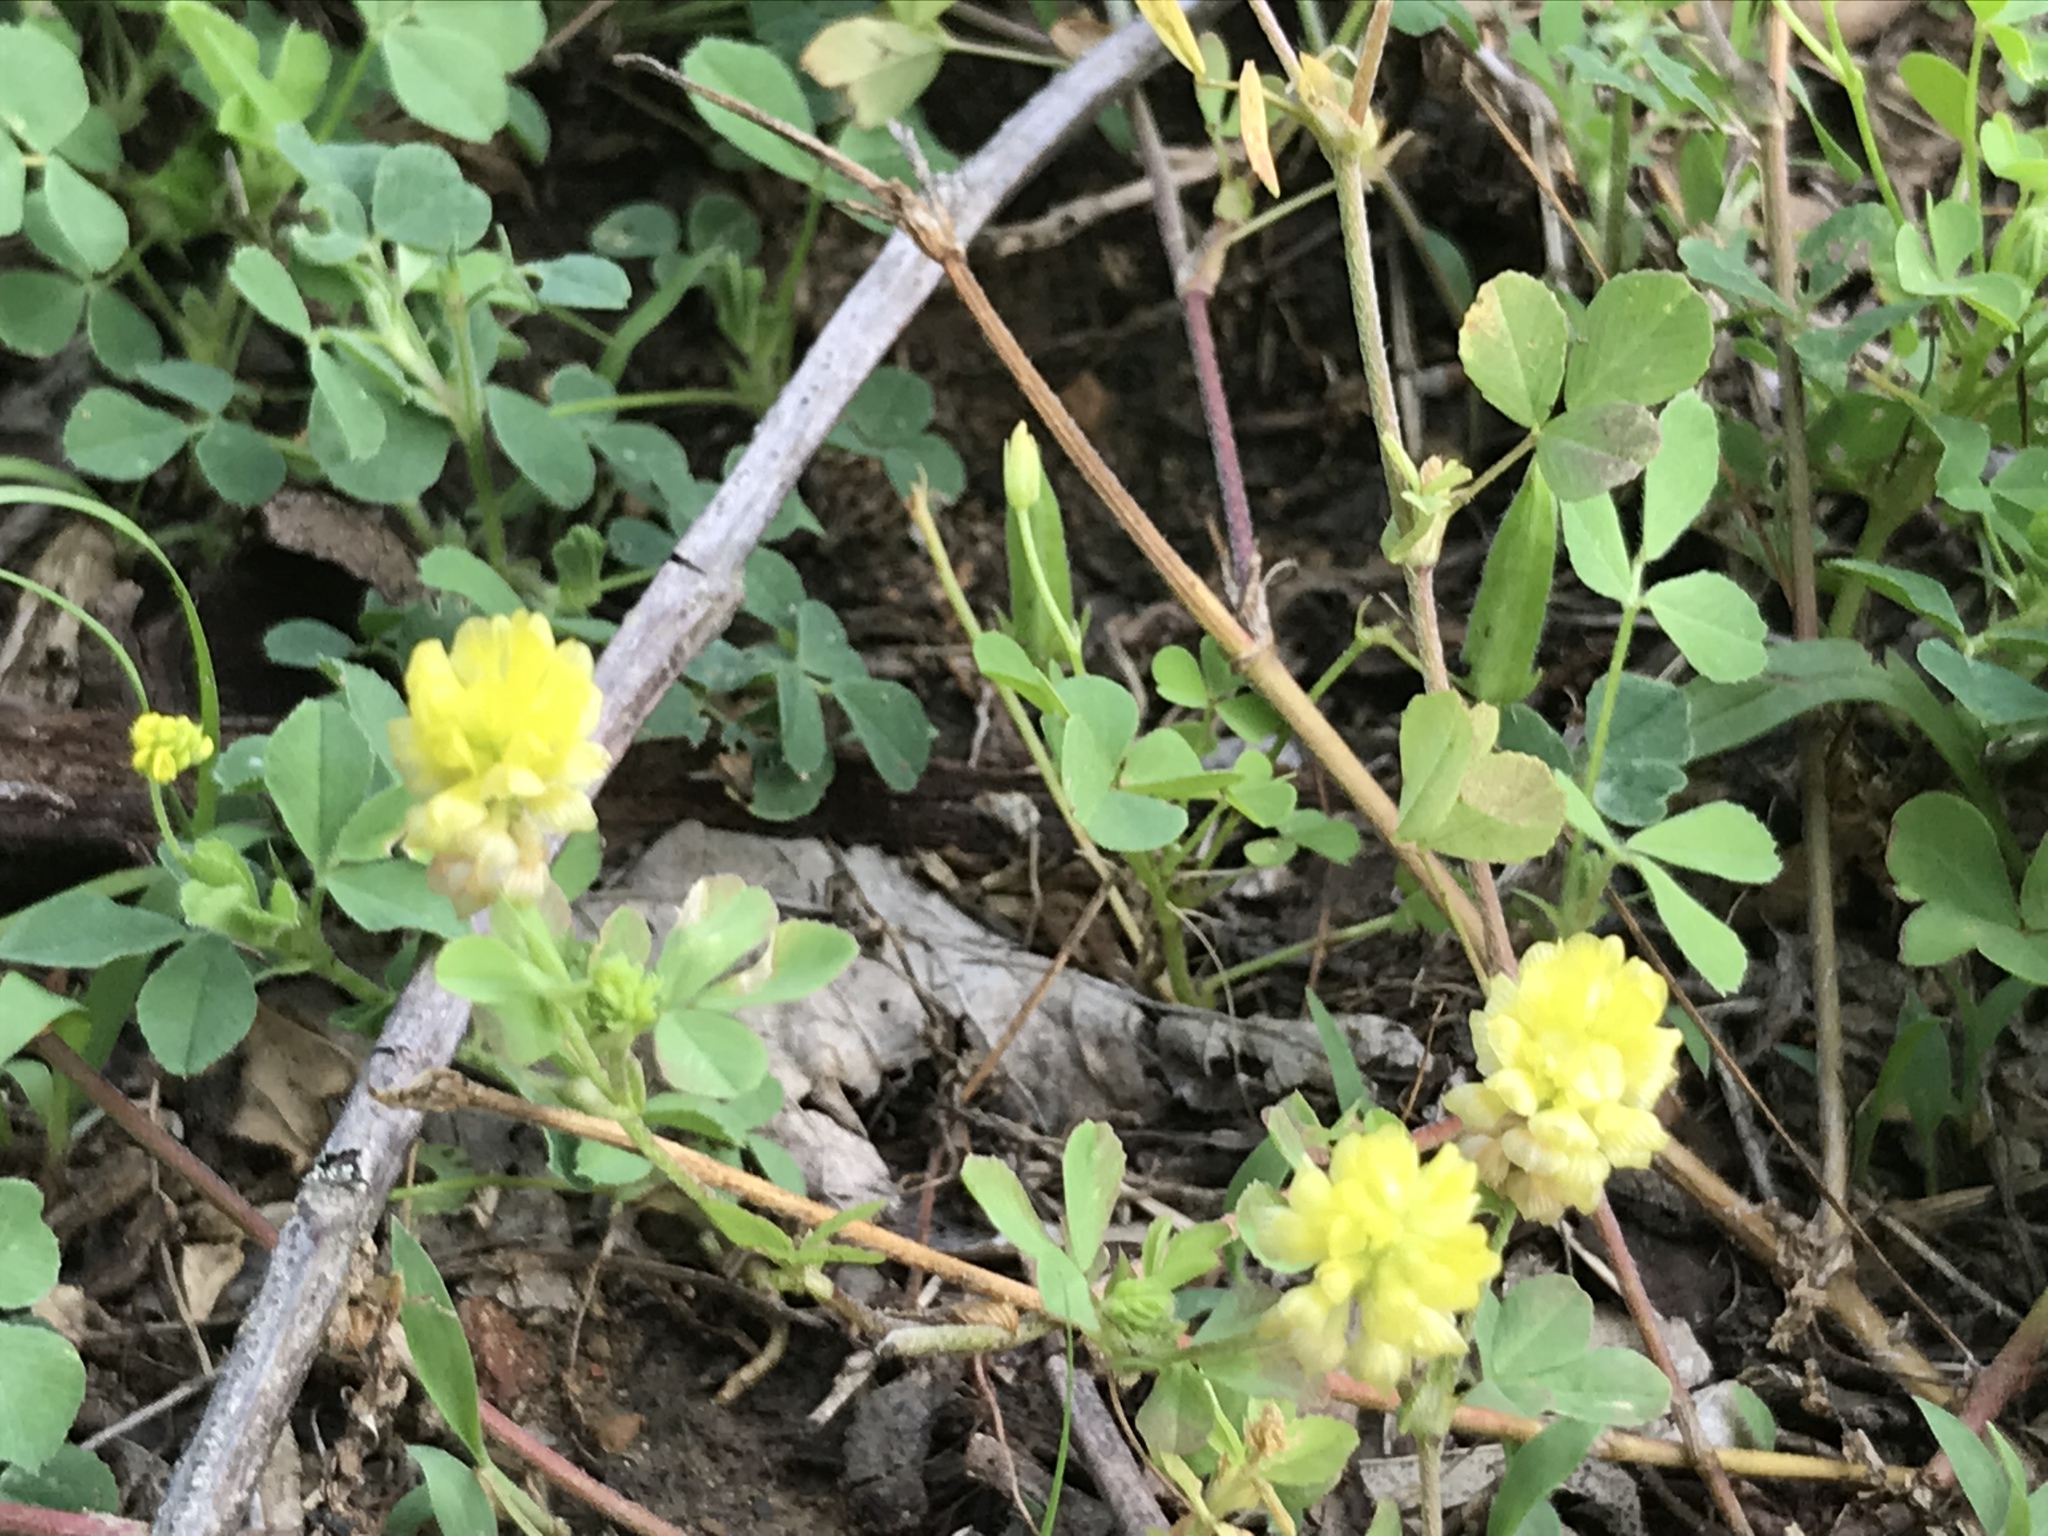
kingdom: Plantae
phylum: Tracheophyta
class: Magnoliopsida
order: Fabales
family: Fabaceae
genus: Trifolium
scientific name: Trifolium campestre
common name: Field clover
